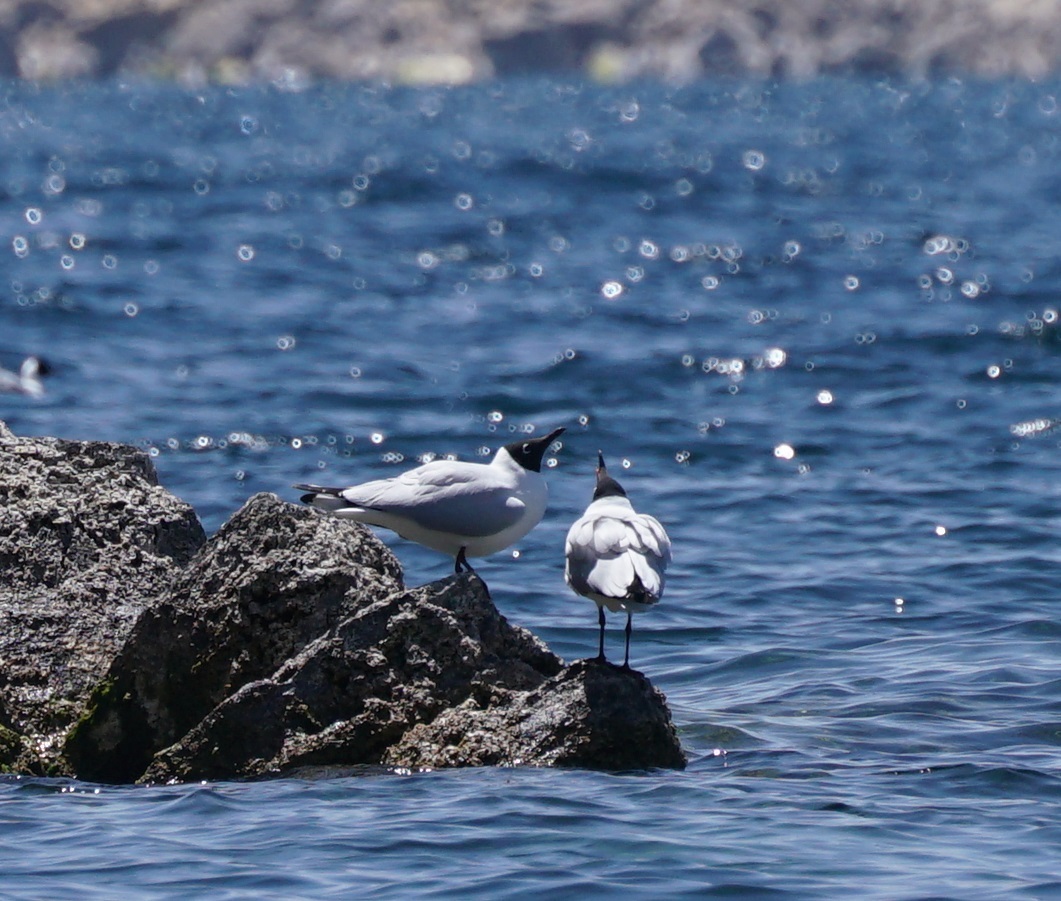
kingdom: Animalia
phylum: Chordata
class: Aves
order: Charadriiformes
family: Laridae
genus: Chroicocephalus
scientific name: Chroicocephalus serranus
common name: Andean gull
